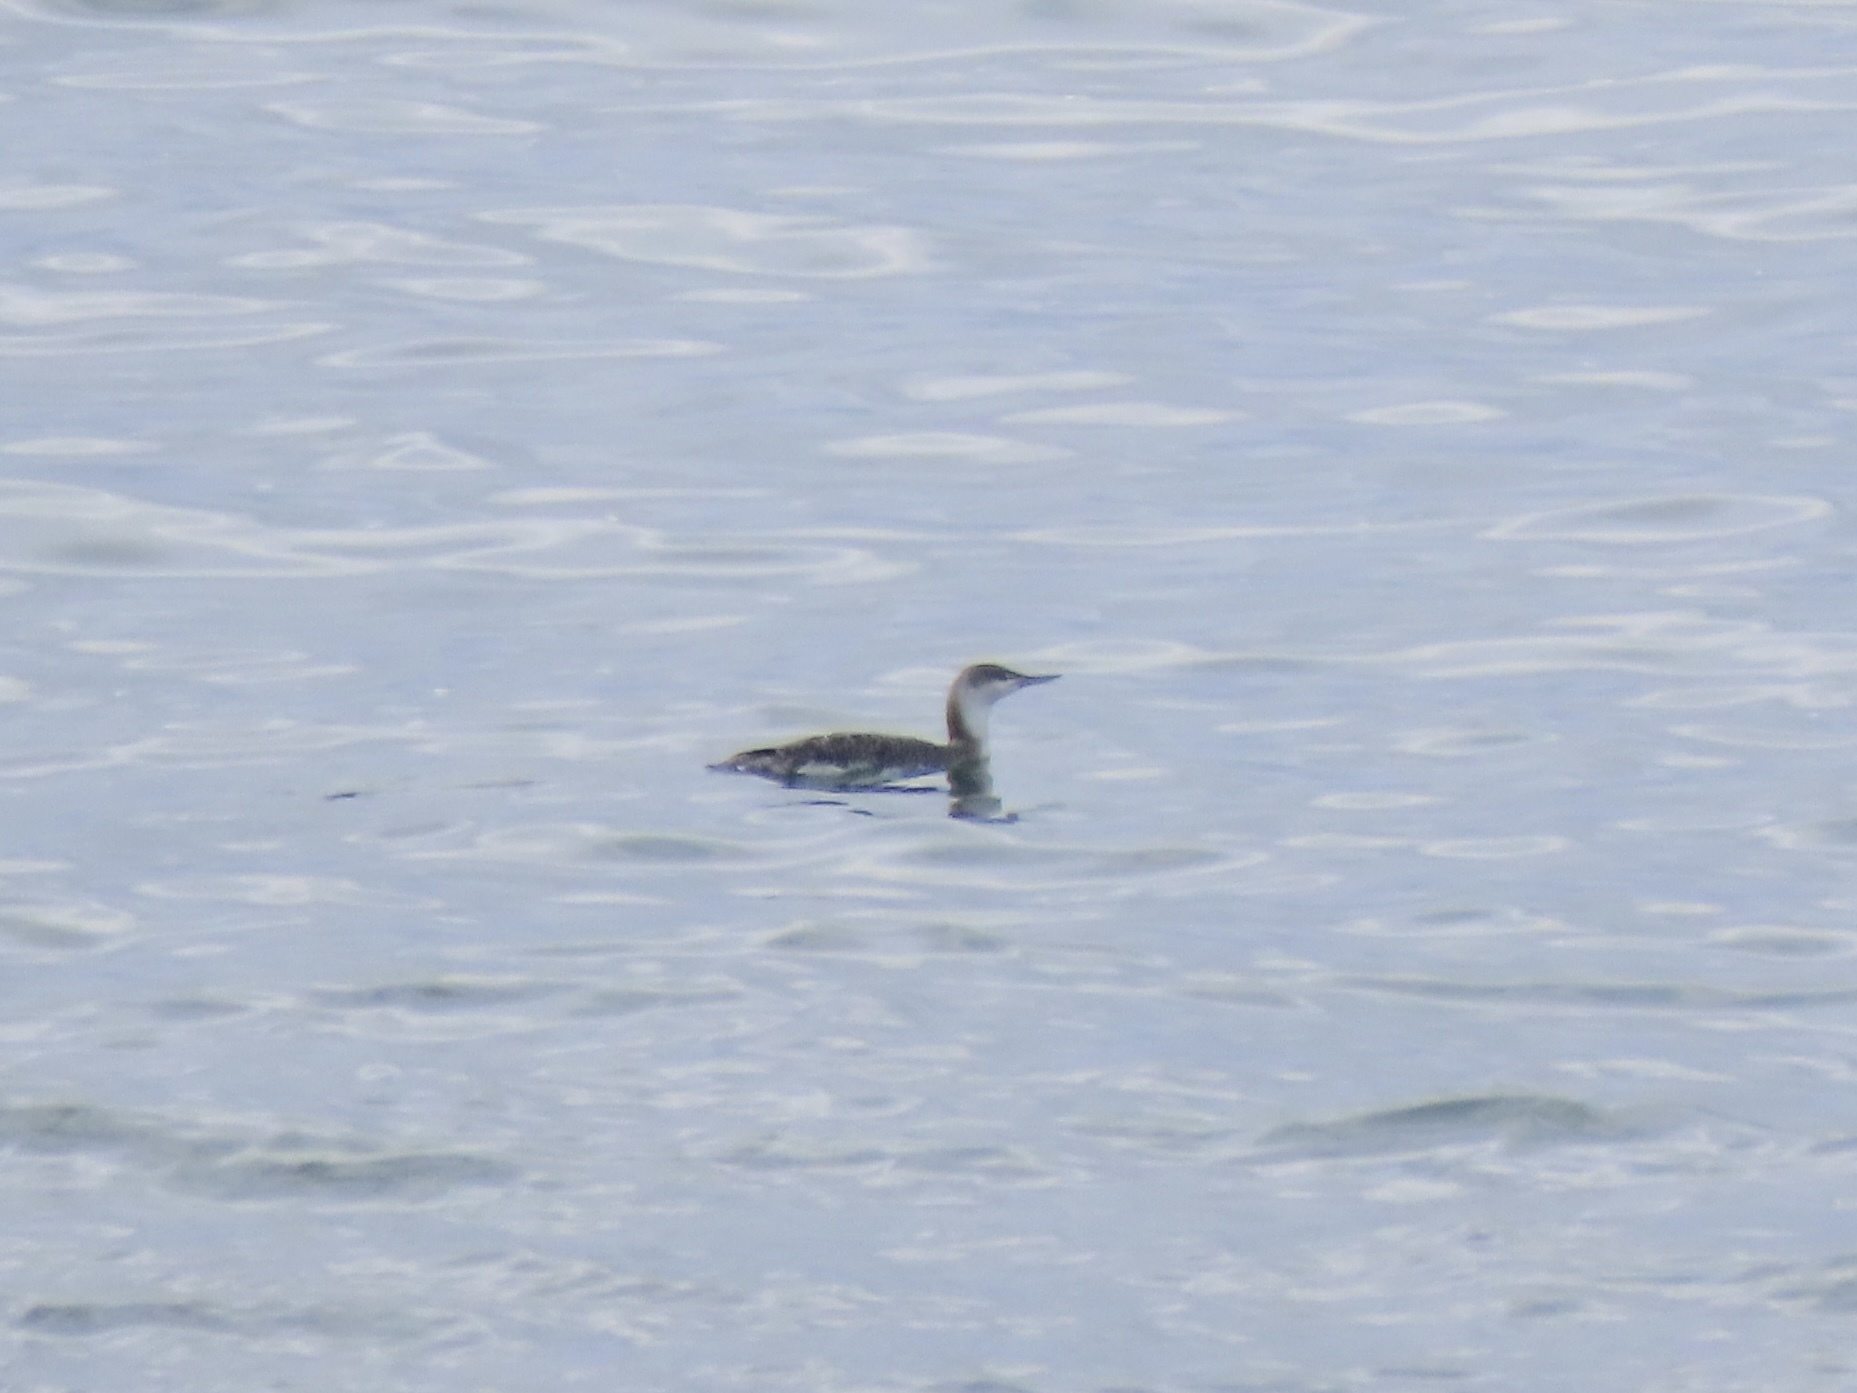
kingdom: Animalia
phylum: Chordata
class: Aves
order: Gaviiformes
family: Gaviidae
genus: Gavia
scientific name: Gavia stellata
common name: Red-throated loon
